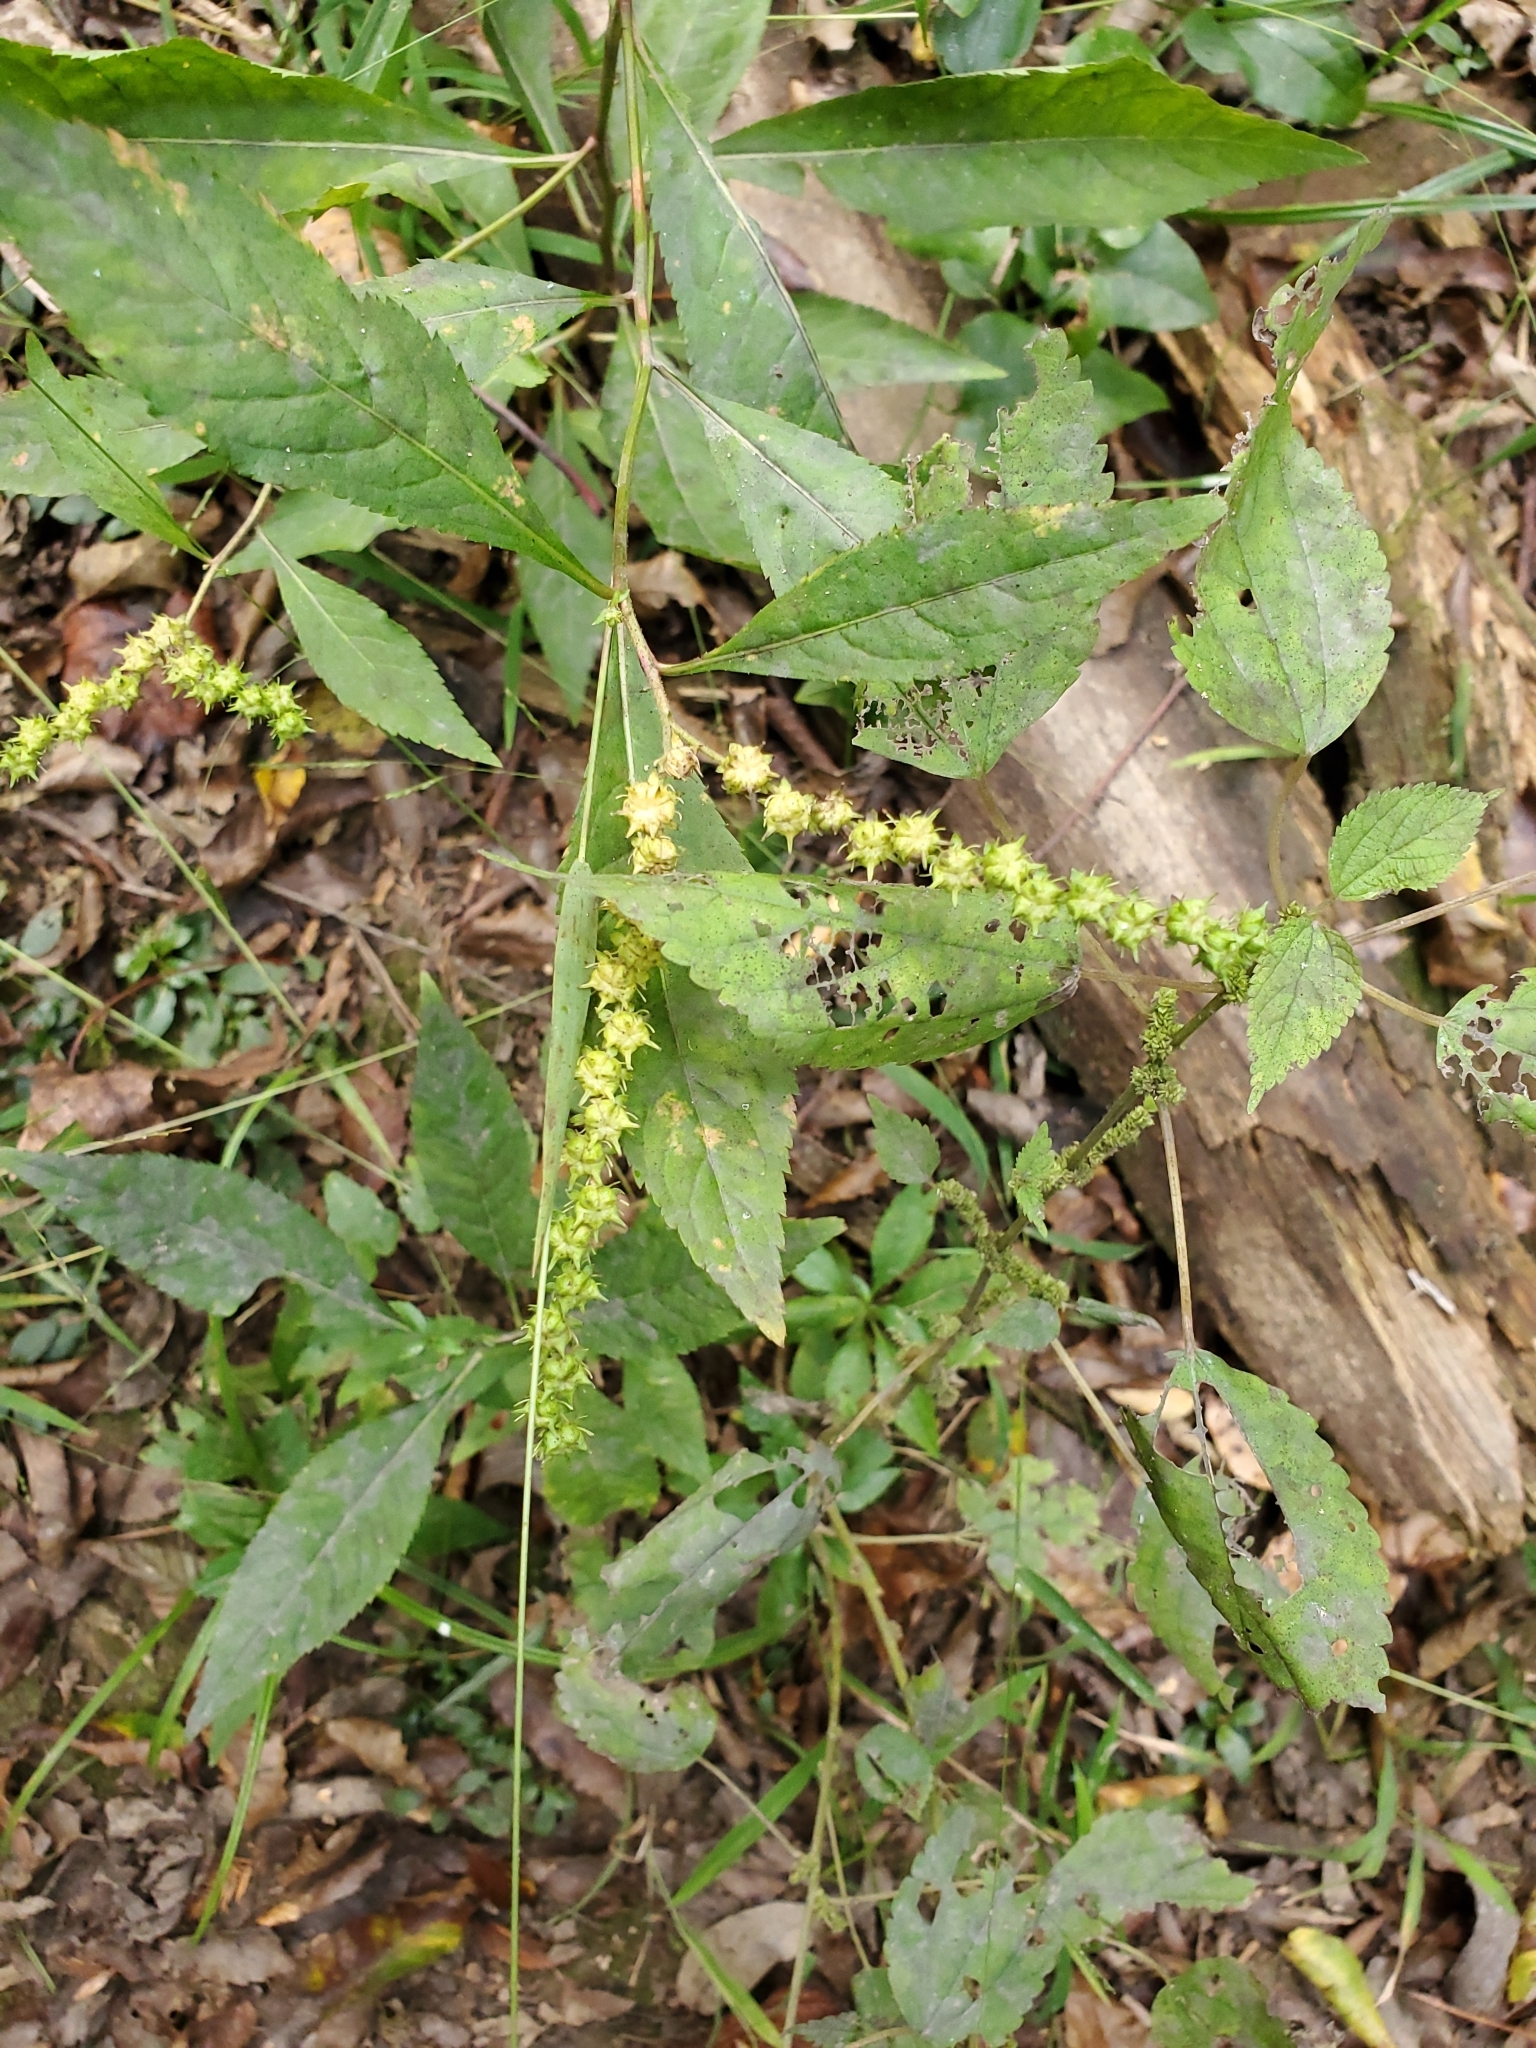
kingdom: Plantae
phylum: Tracheophyta
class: Magnoliopsida
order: Saxifragales
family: Penthoraceae
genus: Penthorum
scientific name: Penthorum sedoides
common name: Ditch stonecrop
